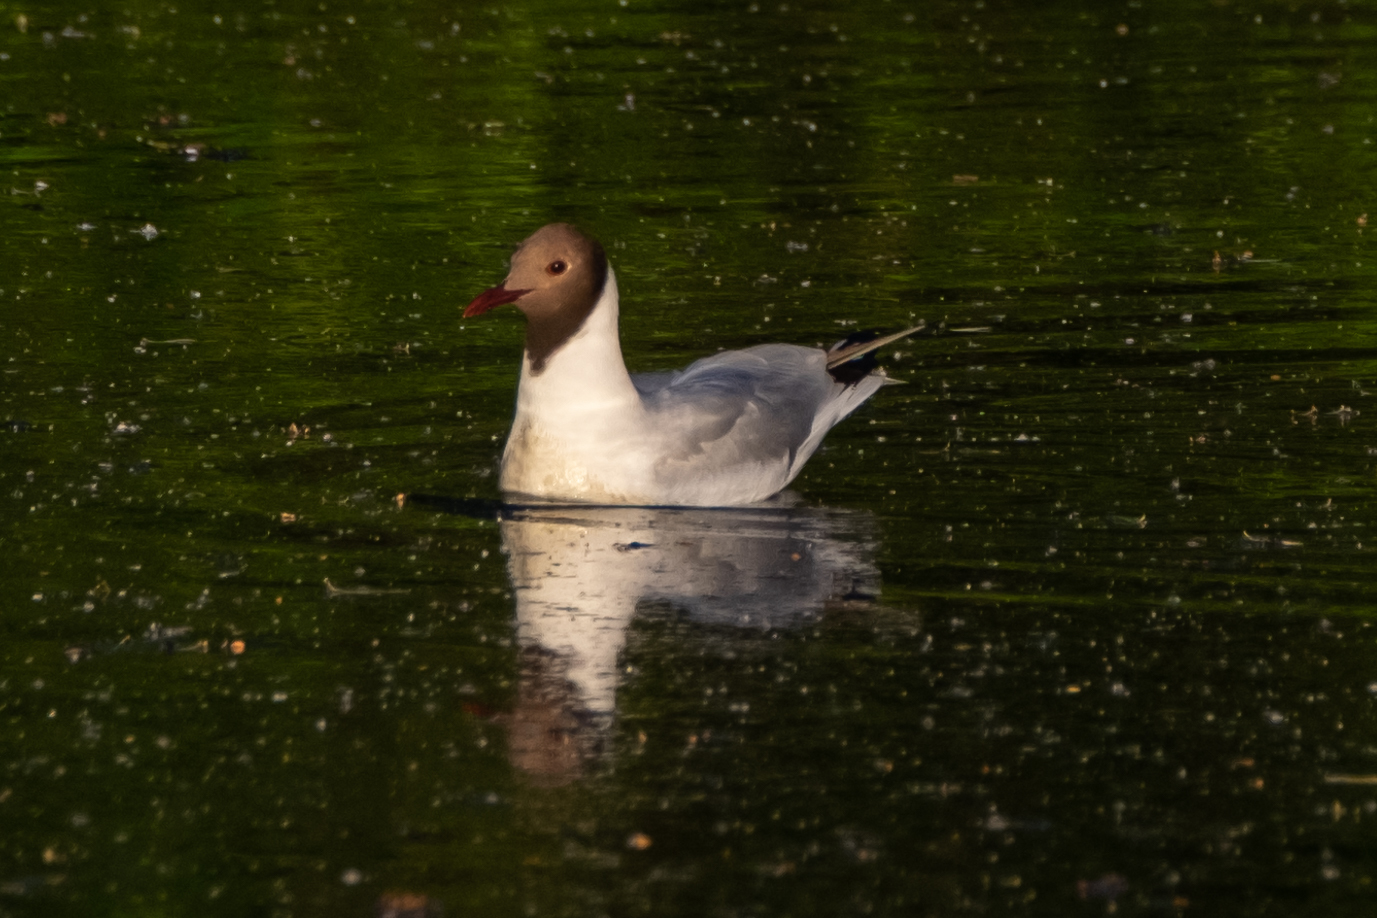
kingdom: Animalia
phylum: Chordata
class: Aves
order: Charadriiformes
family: Laridae
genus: Chroicocephalus
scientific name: Chroicocephalus ridibundus
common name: Black-headed gull
